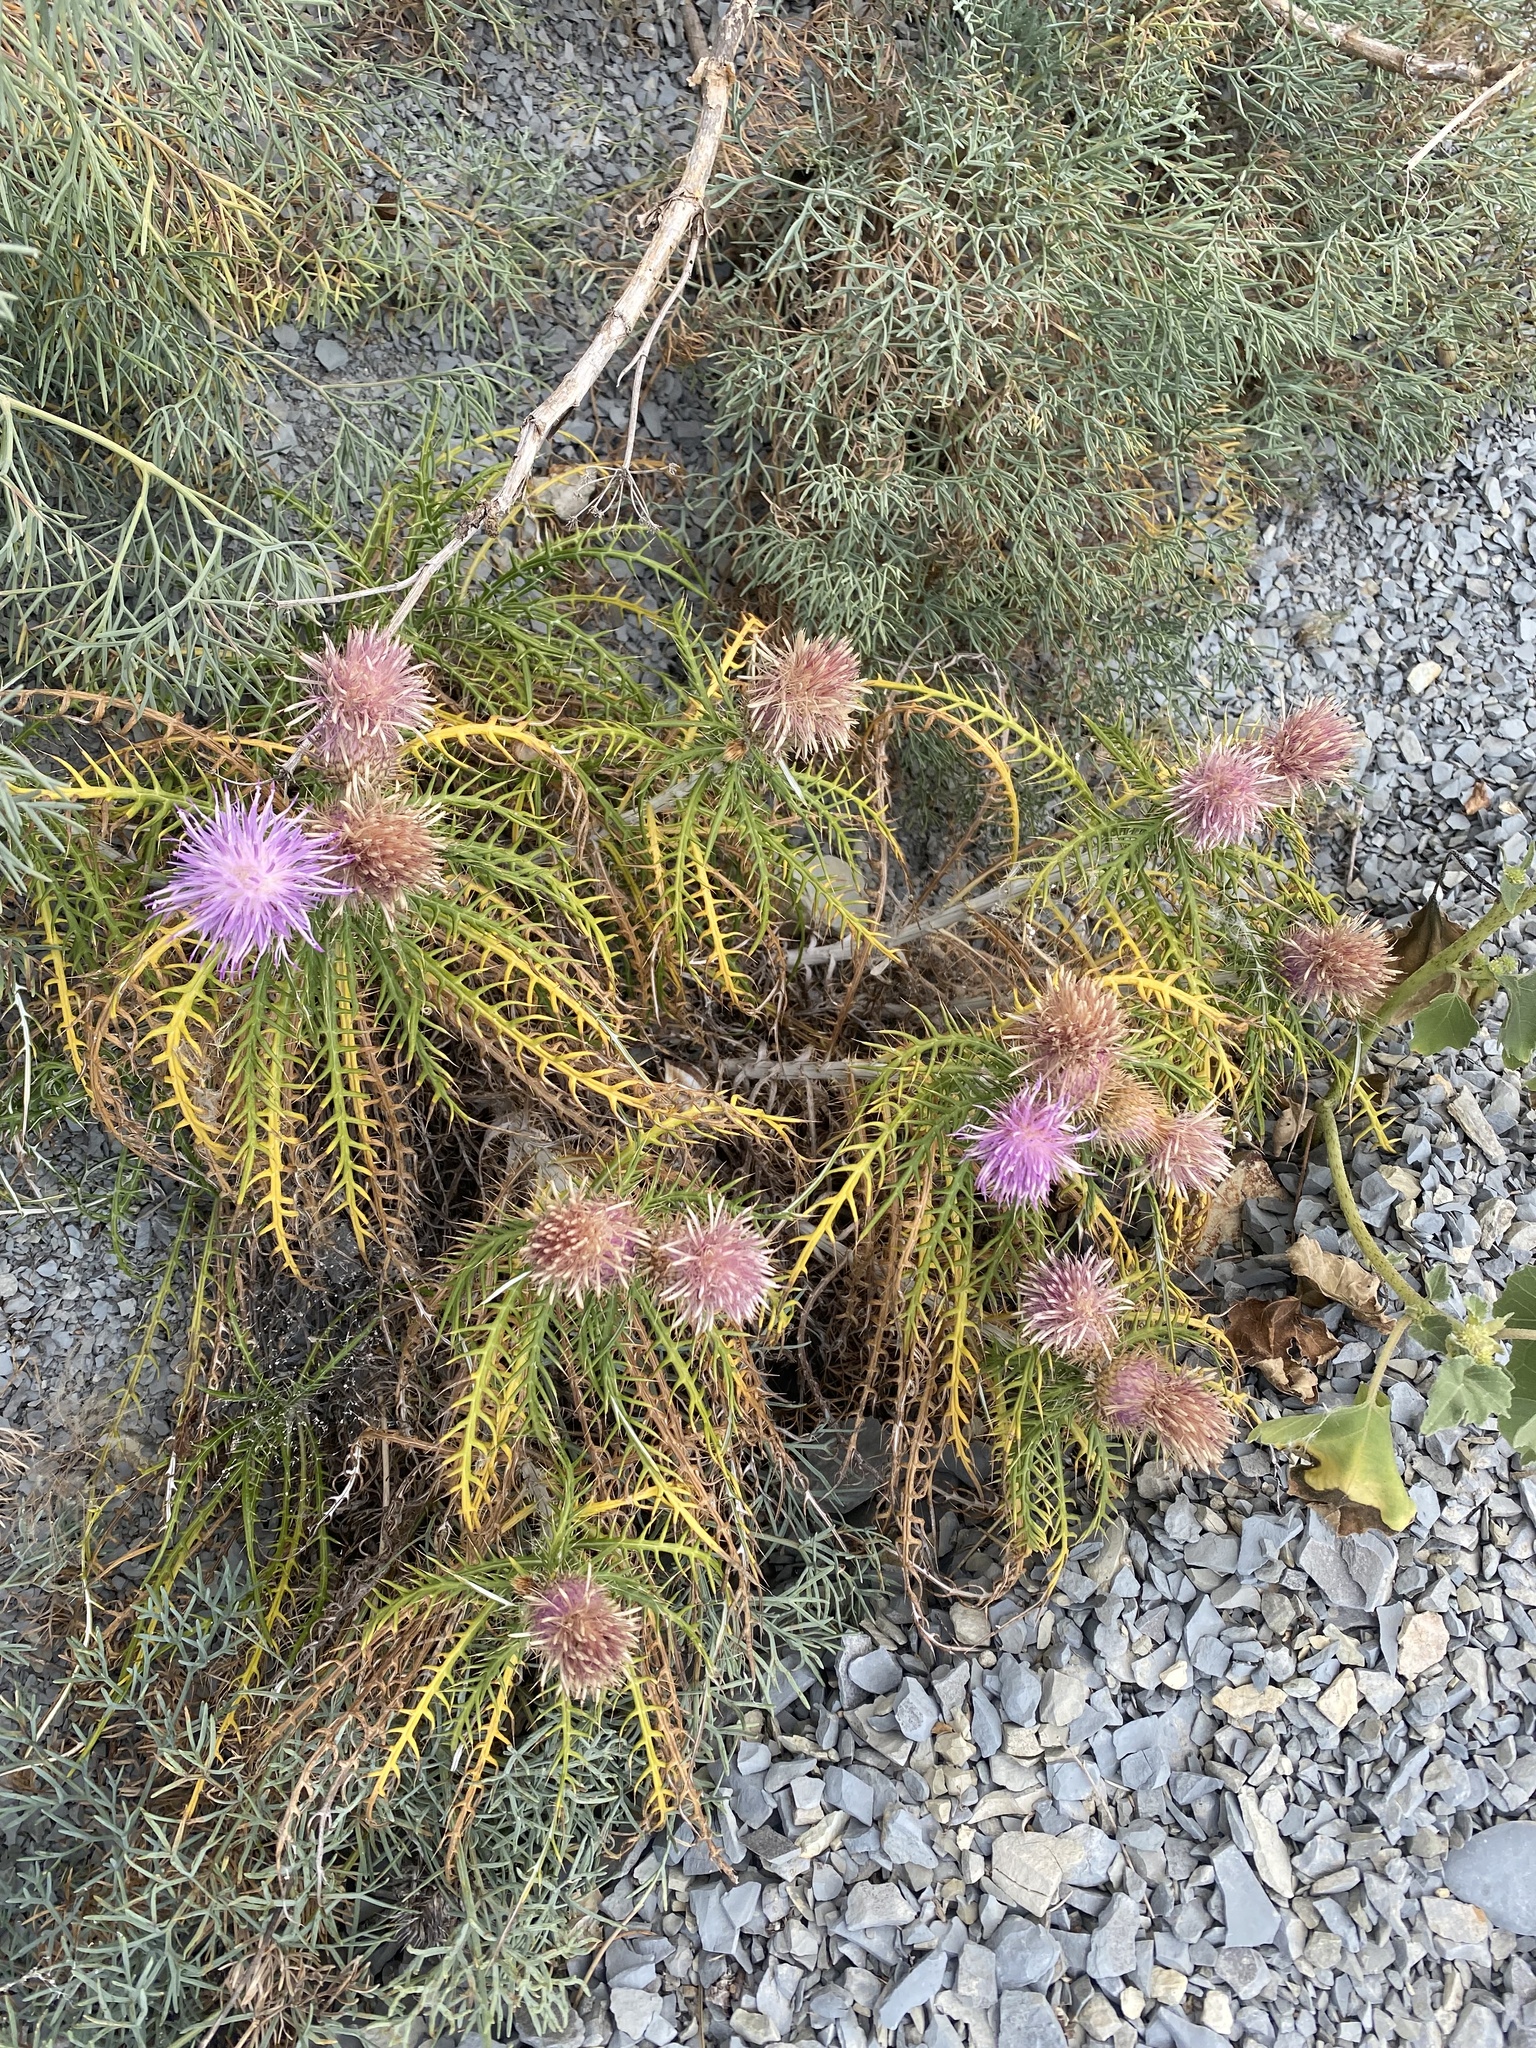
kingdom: Plantae
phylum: Tracheophyta
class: Magnoliopsida
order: Asterales
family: Asteraceae
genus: Ptilostemon
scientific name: Ptilostemon echinocephalus
